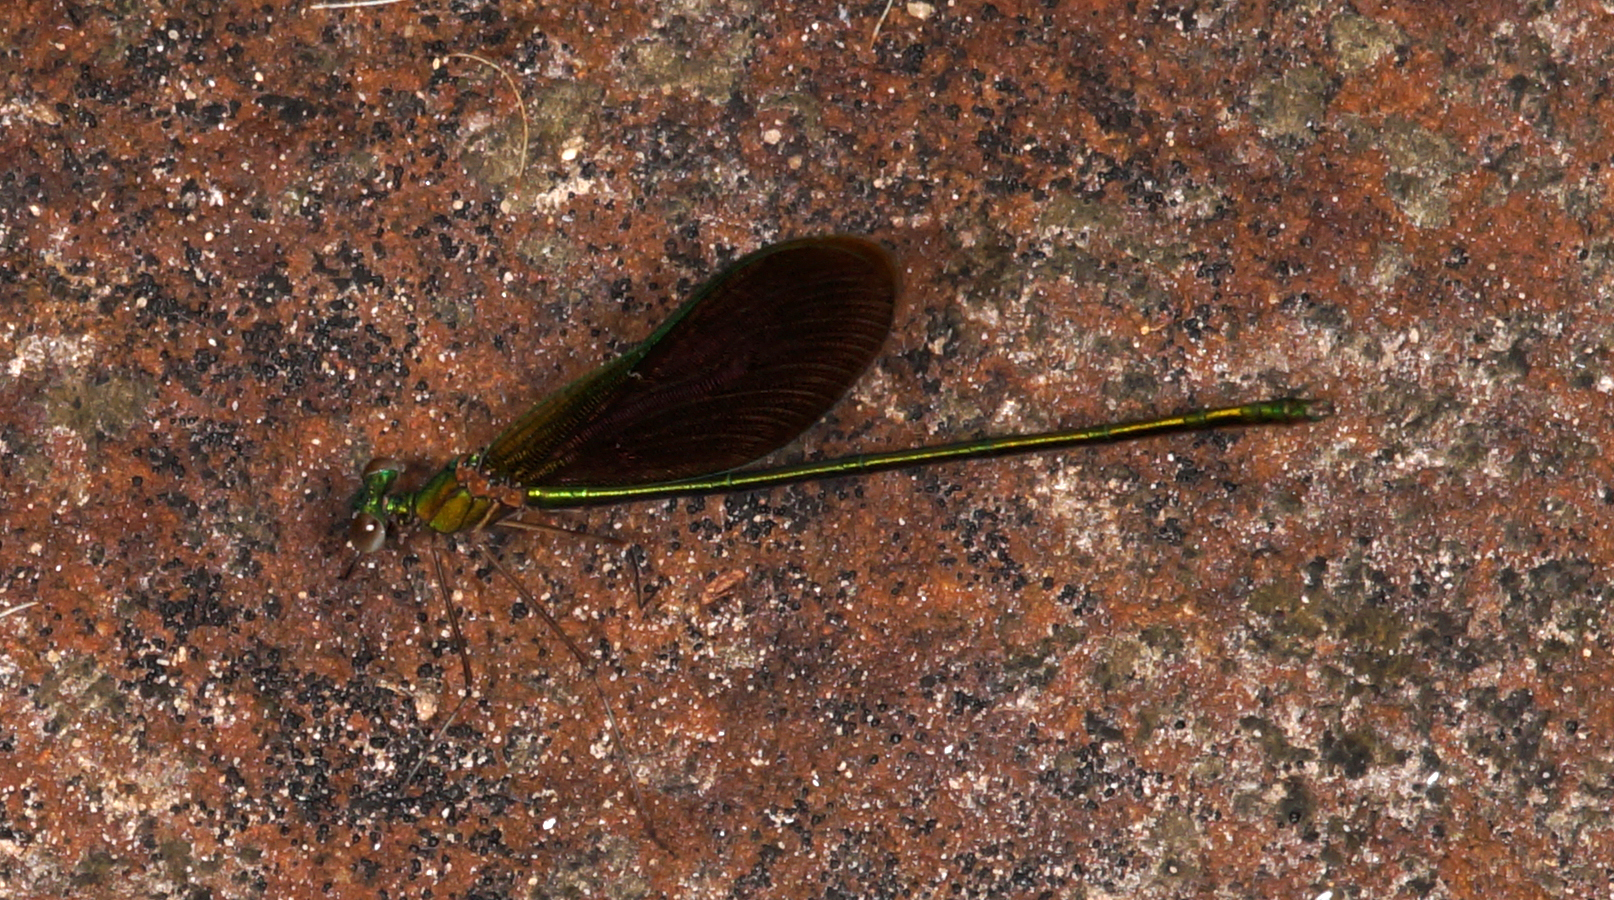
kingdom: Animalia
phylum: Arthropoda
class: Insecta
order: Odonata
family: Calopterygidae
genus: Neurobasis
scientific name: Neurobasis chinensis
